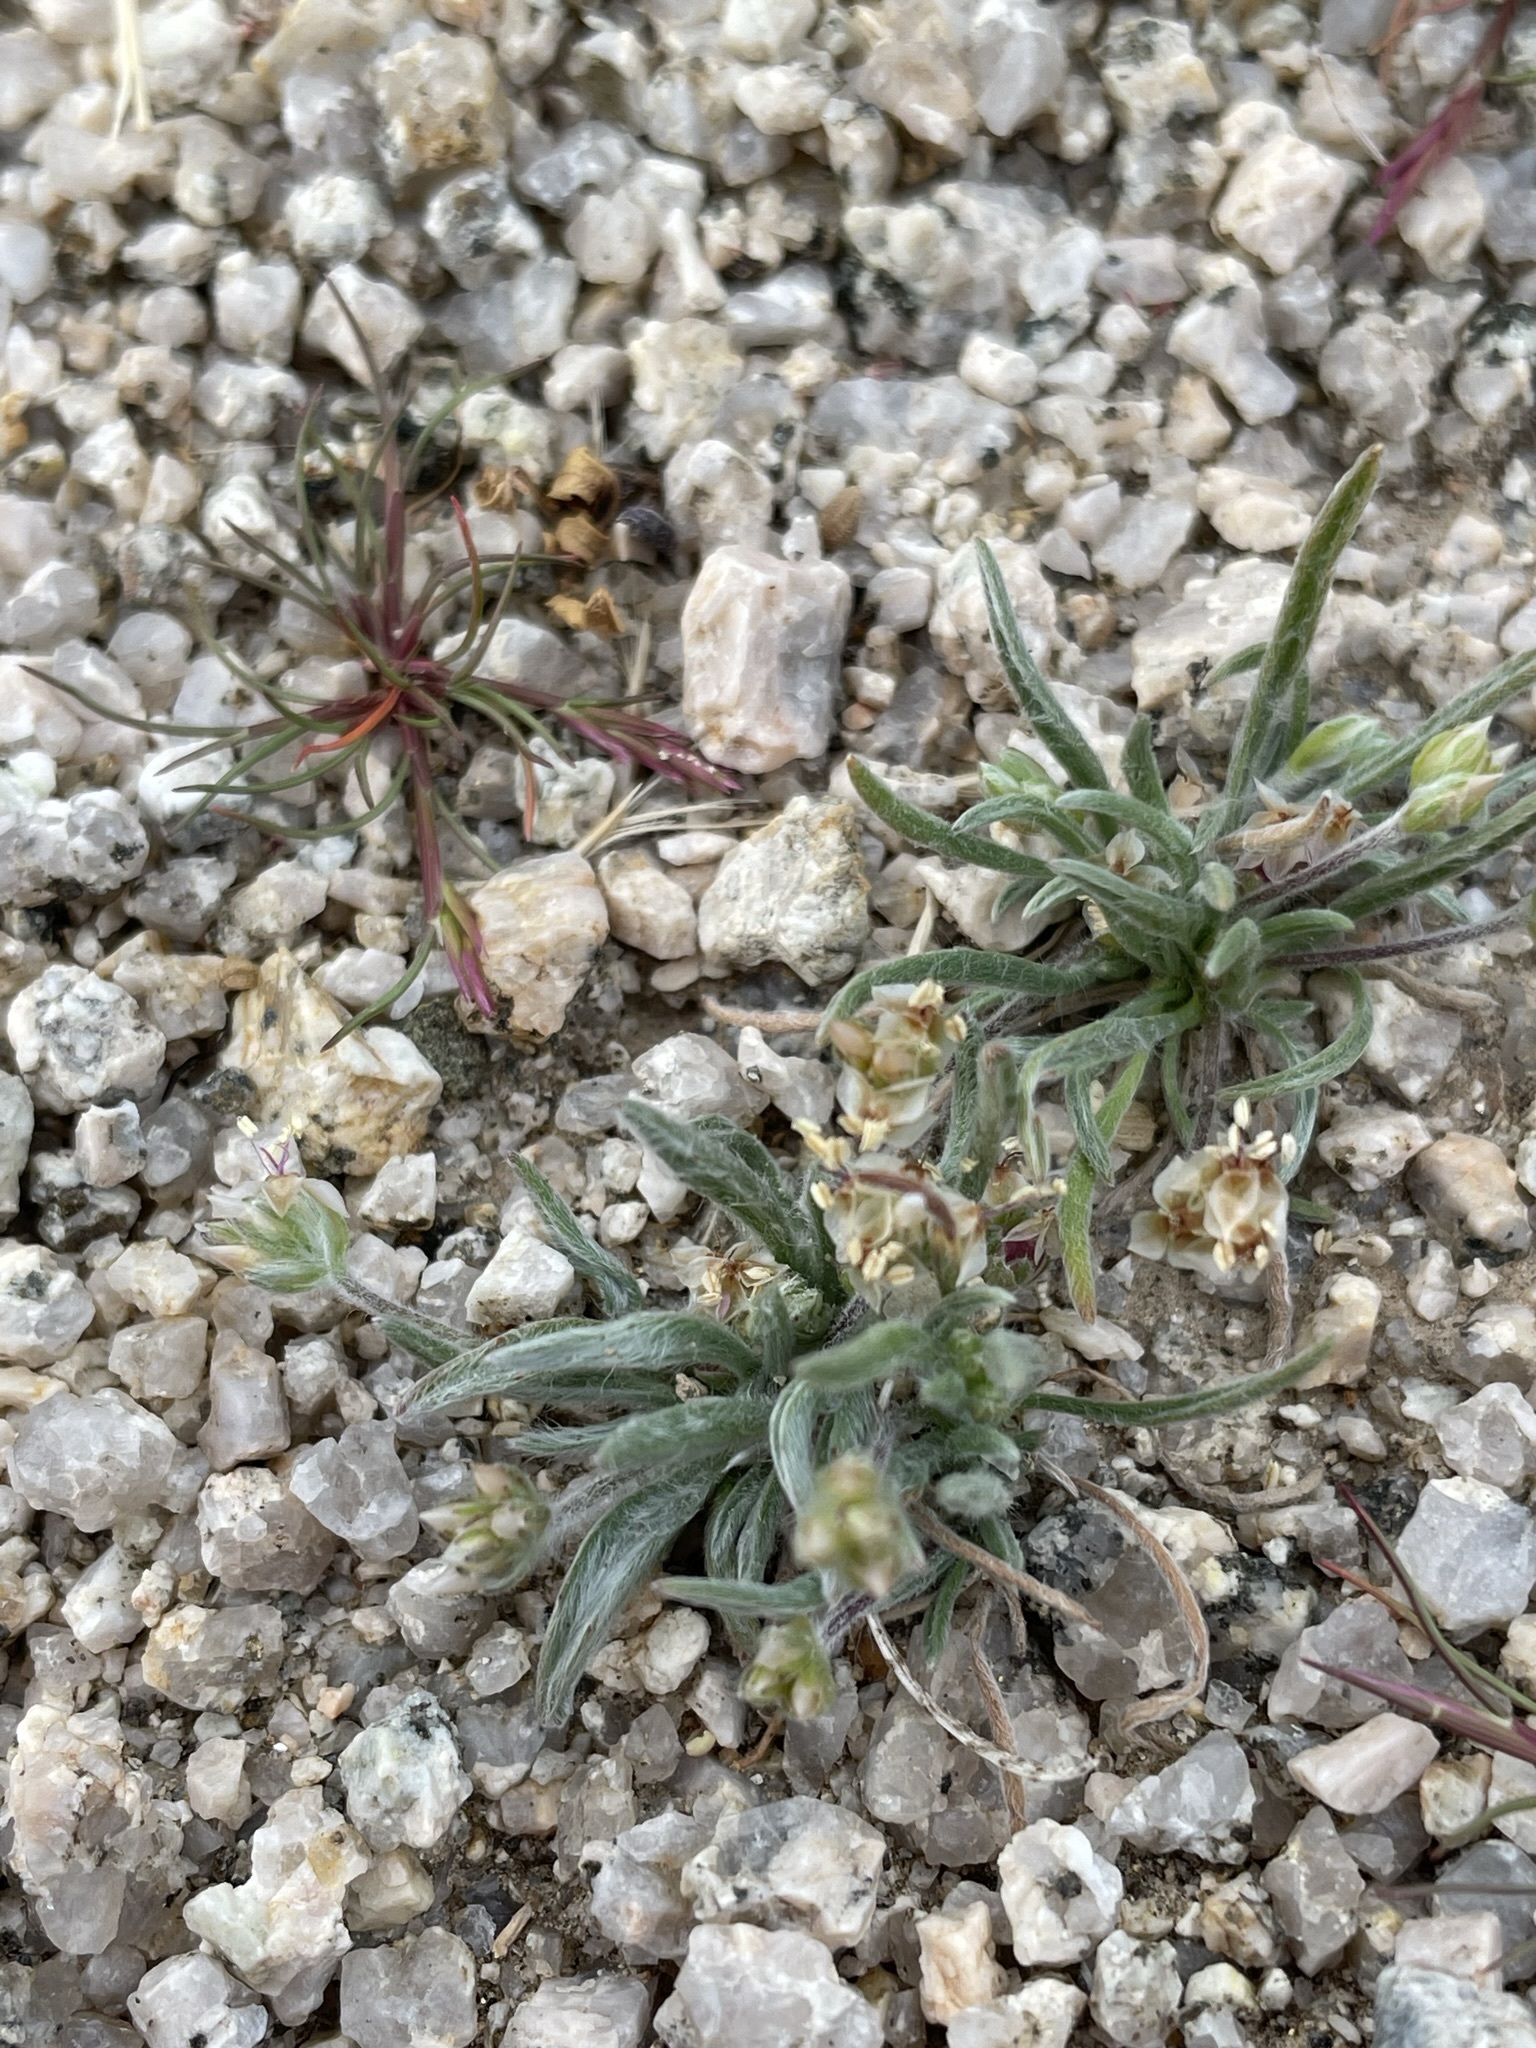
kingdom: Plantae
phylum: Tracheophyta
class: Magnoliopsida
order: Lamiales
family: Plantaginaceae
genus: Plantago
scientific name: Plantago ovata
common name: Blond plantain
